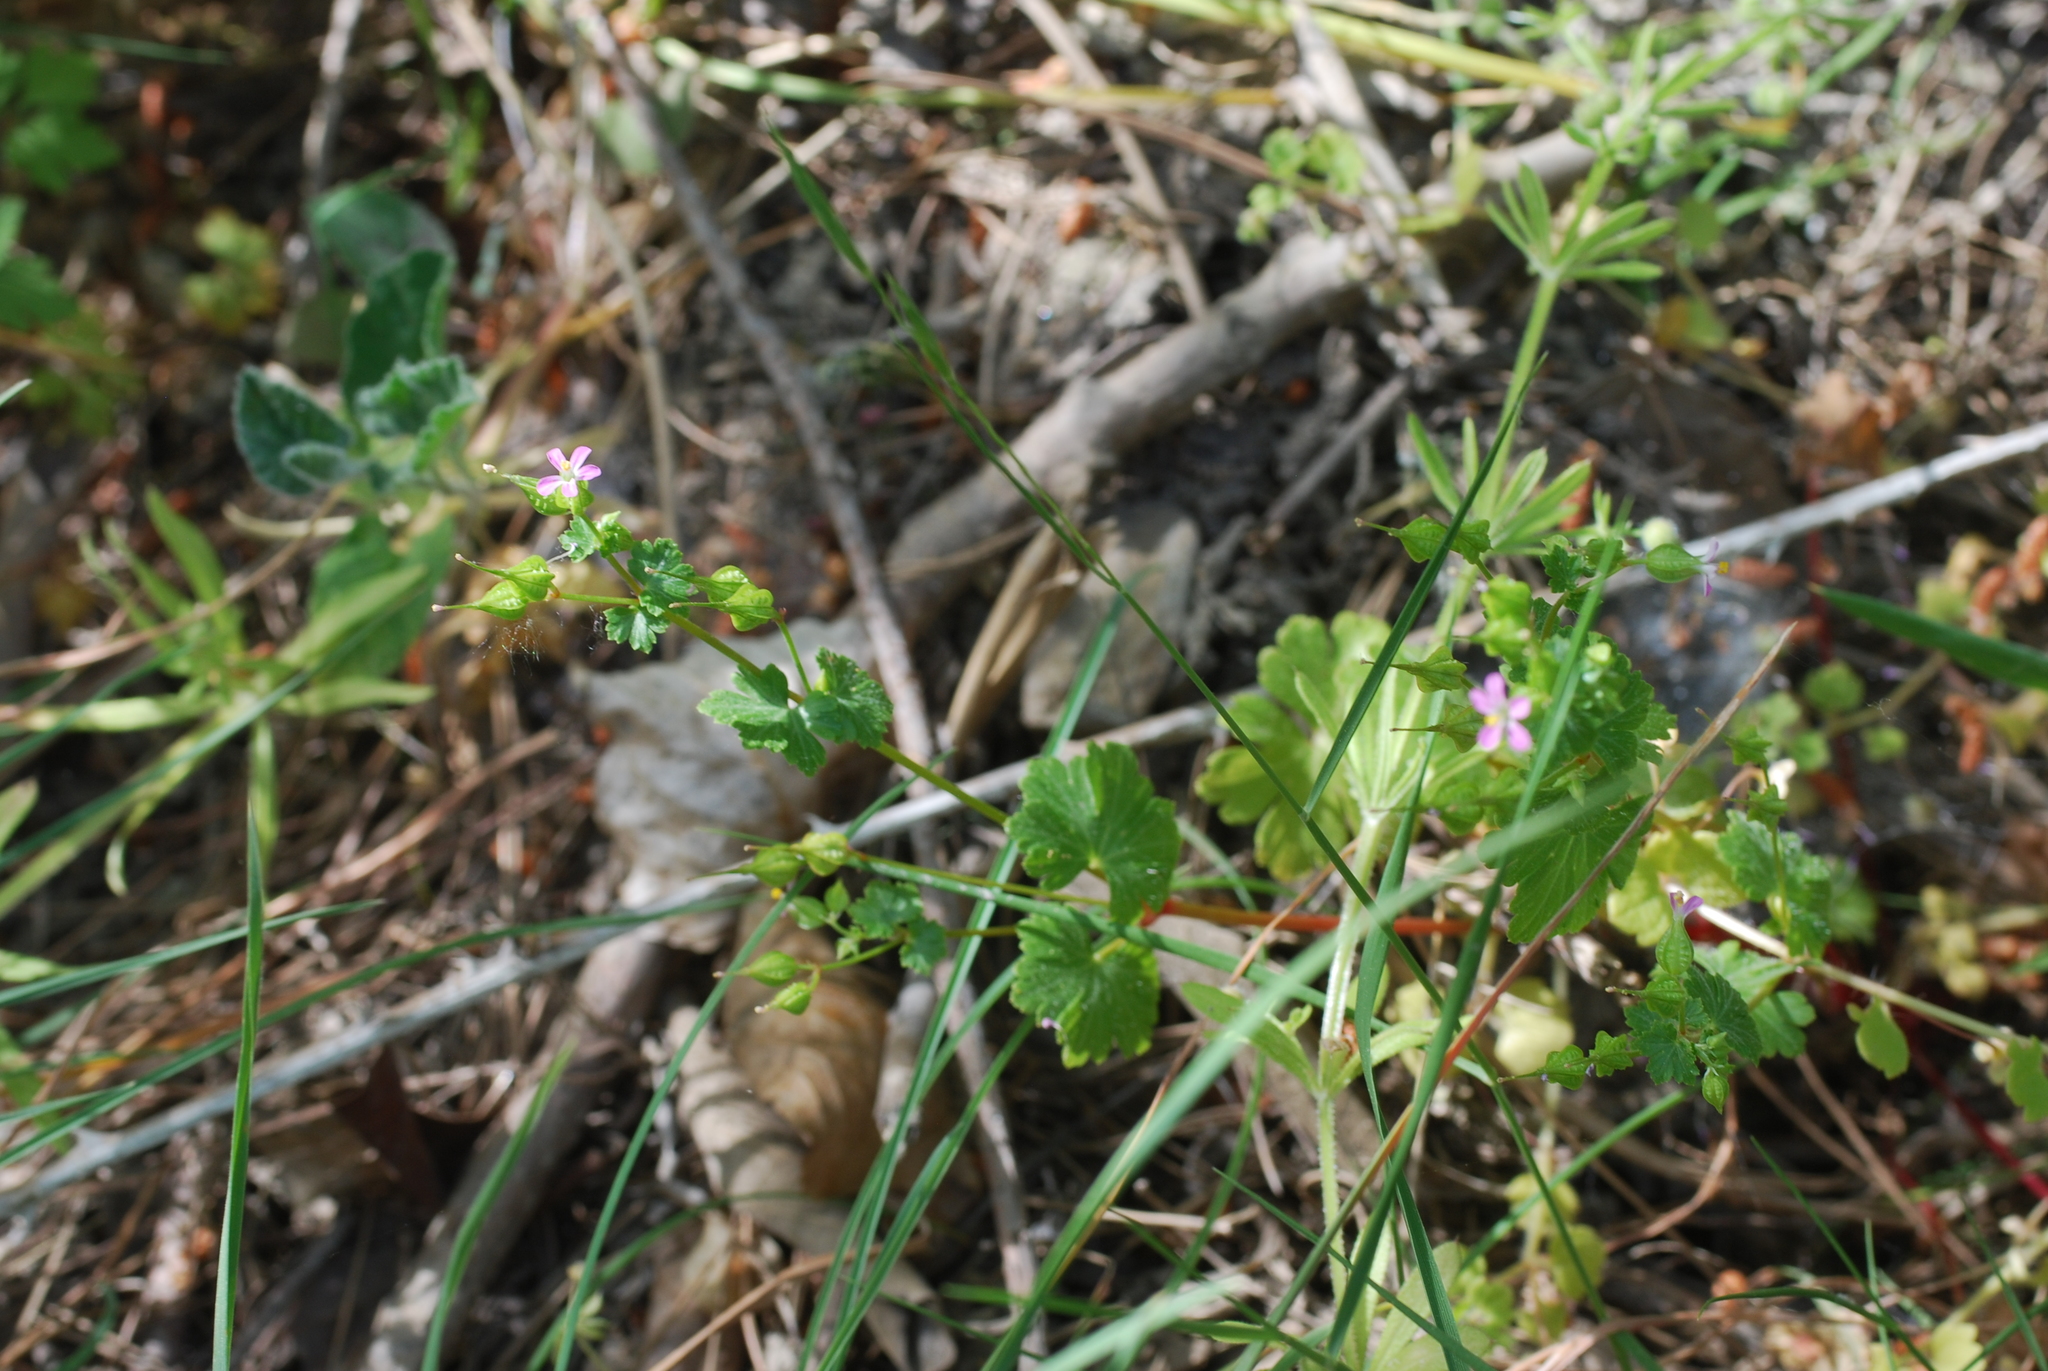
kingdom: Plantae
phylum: Tracheophyta
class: Magnoliopsida
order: Geraniales
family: Geraniaceae
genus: Geranium
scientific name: Geranium lucidum
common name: Shining crane's-bill
